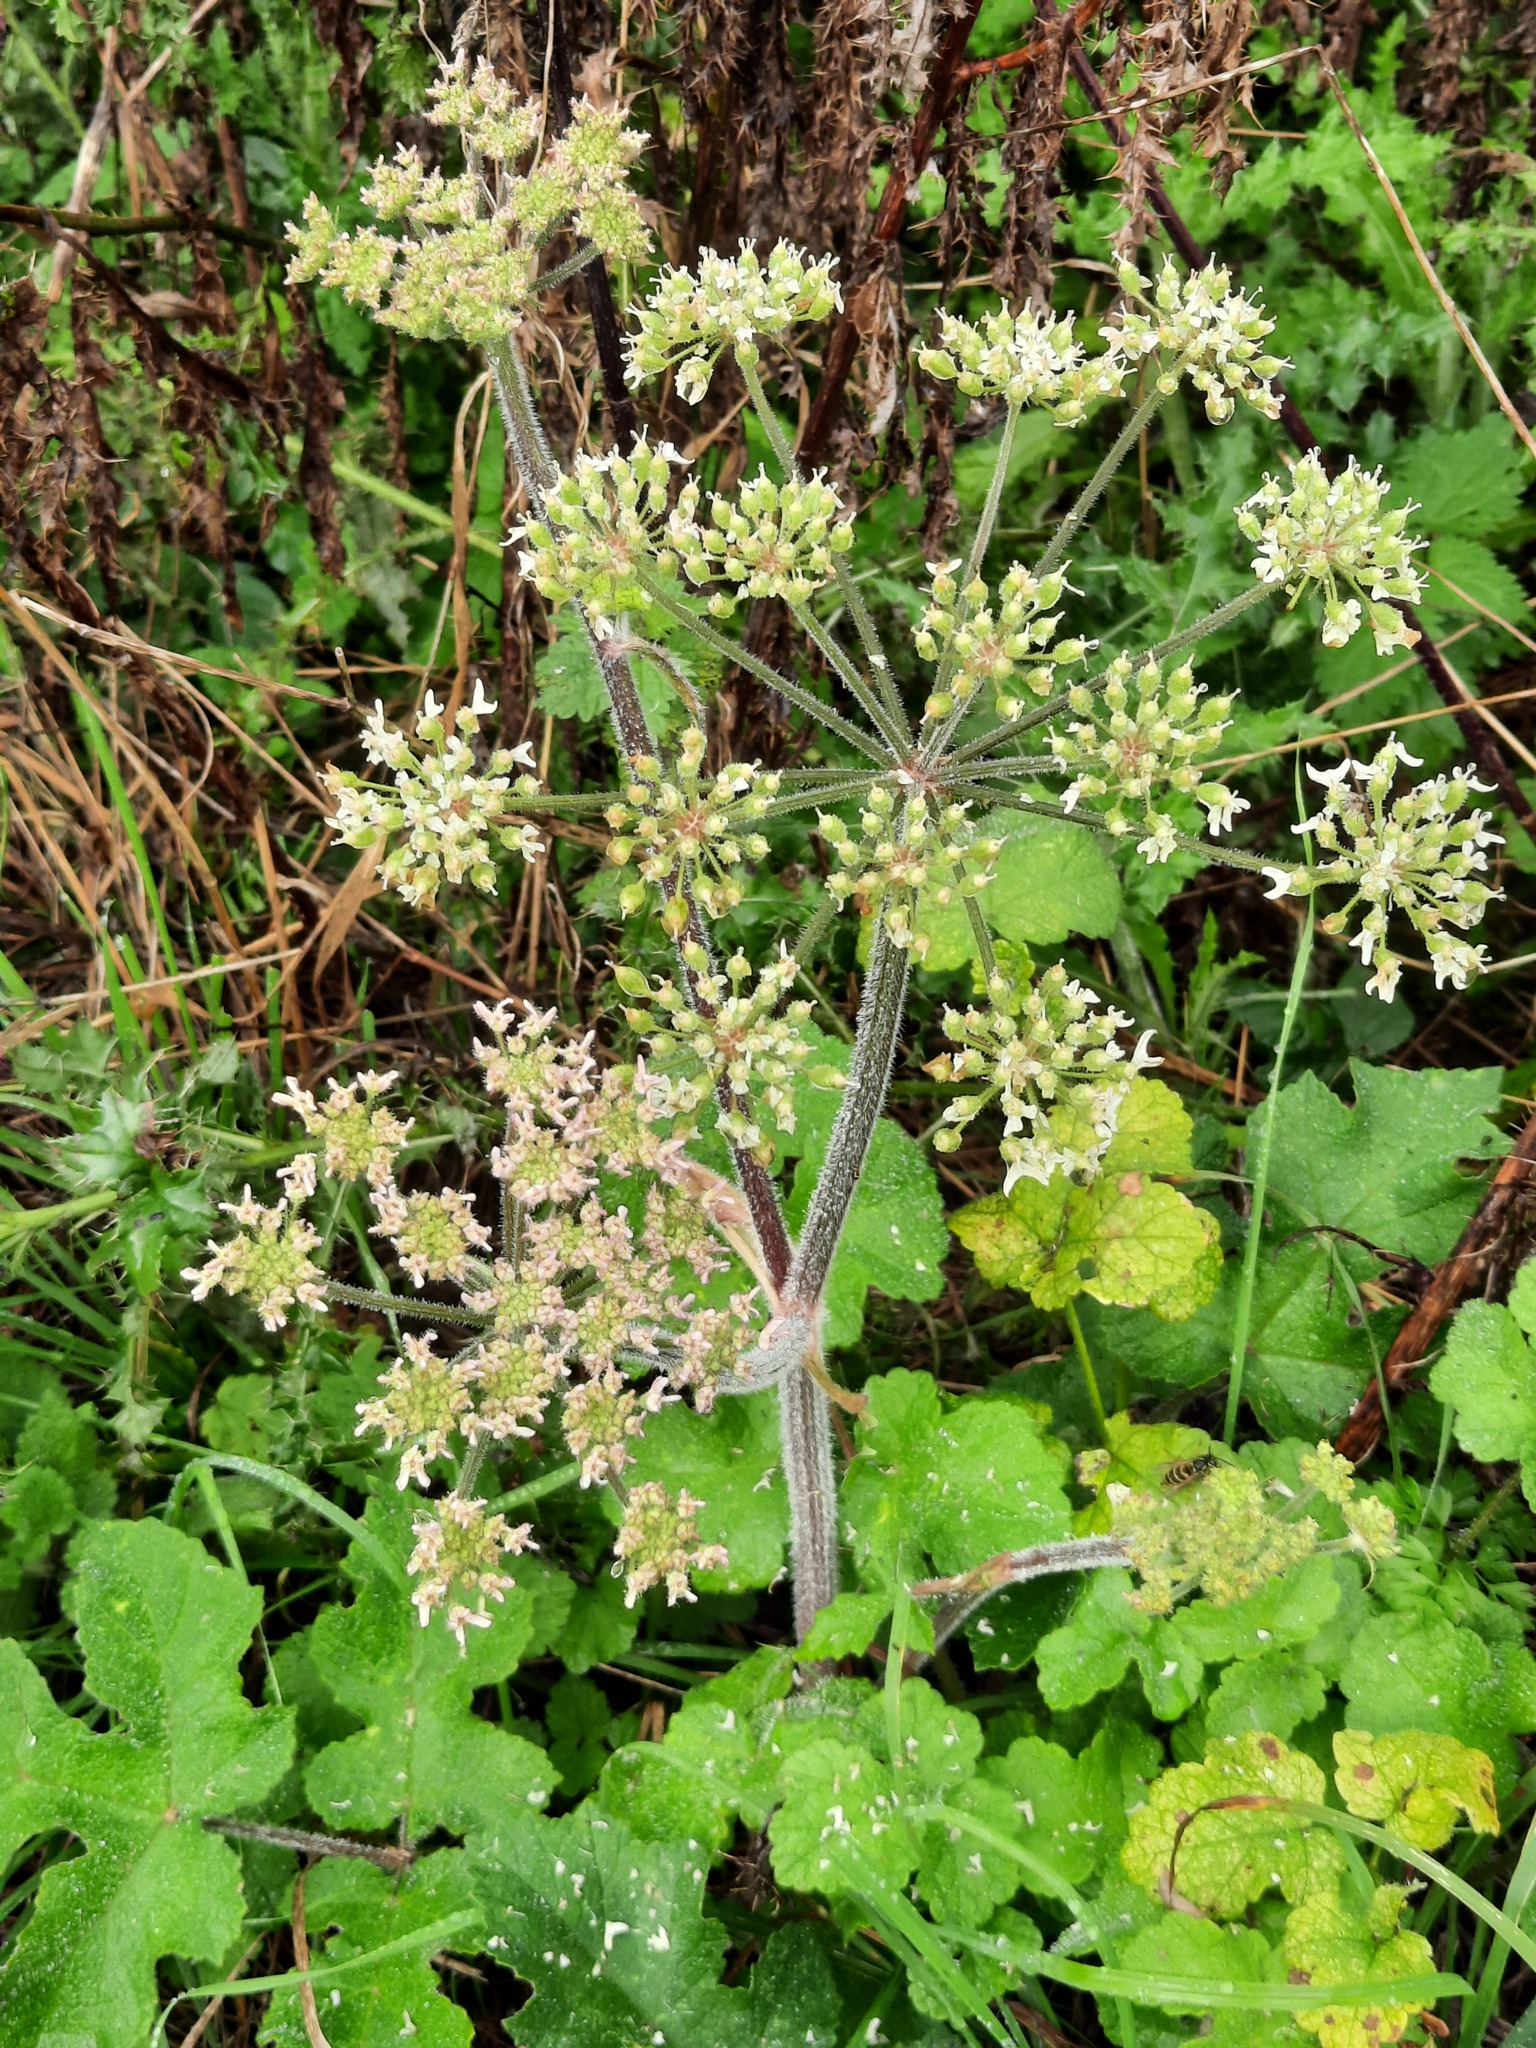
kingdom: Plantae
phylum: Tracheophyta
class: Magnoliopsida
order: Apiales
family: Apiaceae
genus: Heracleum
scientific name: Heracleum sphondylium
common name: Hogweed
